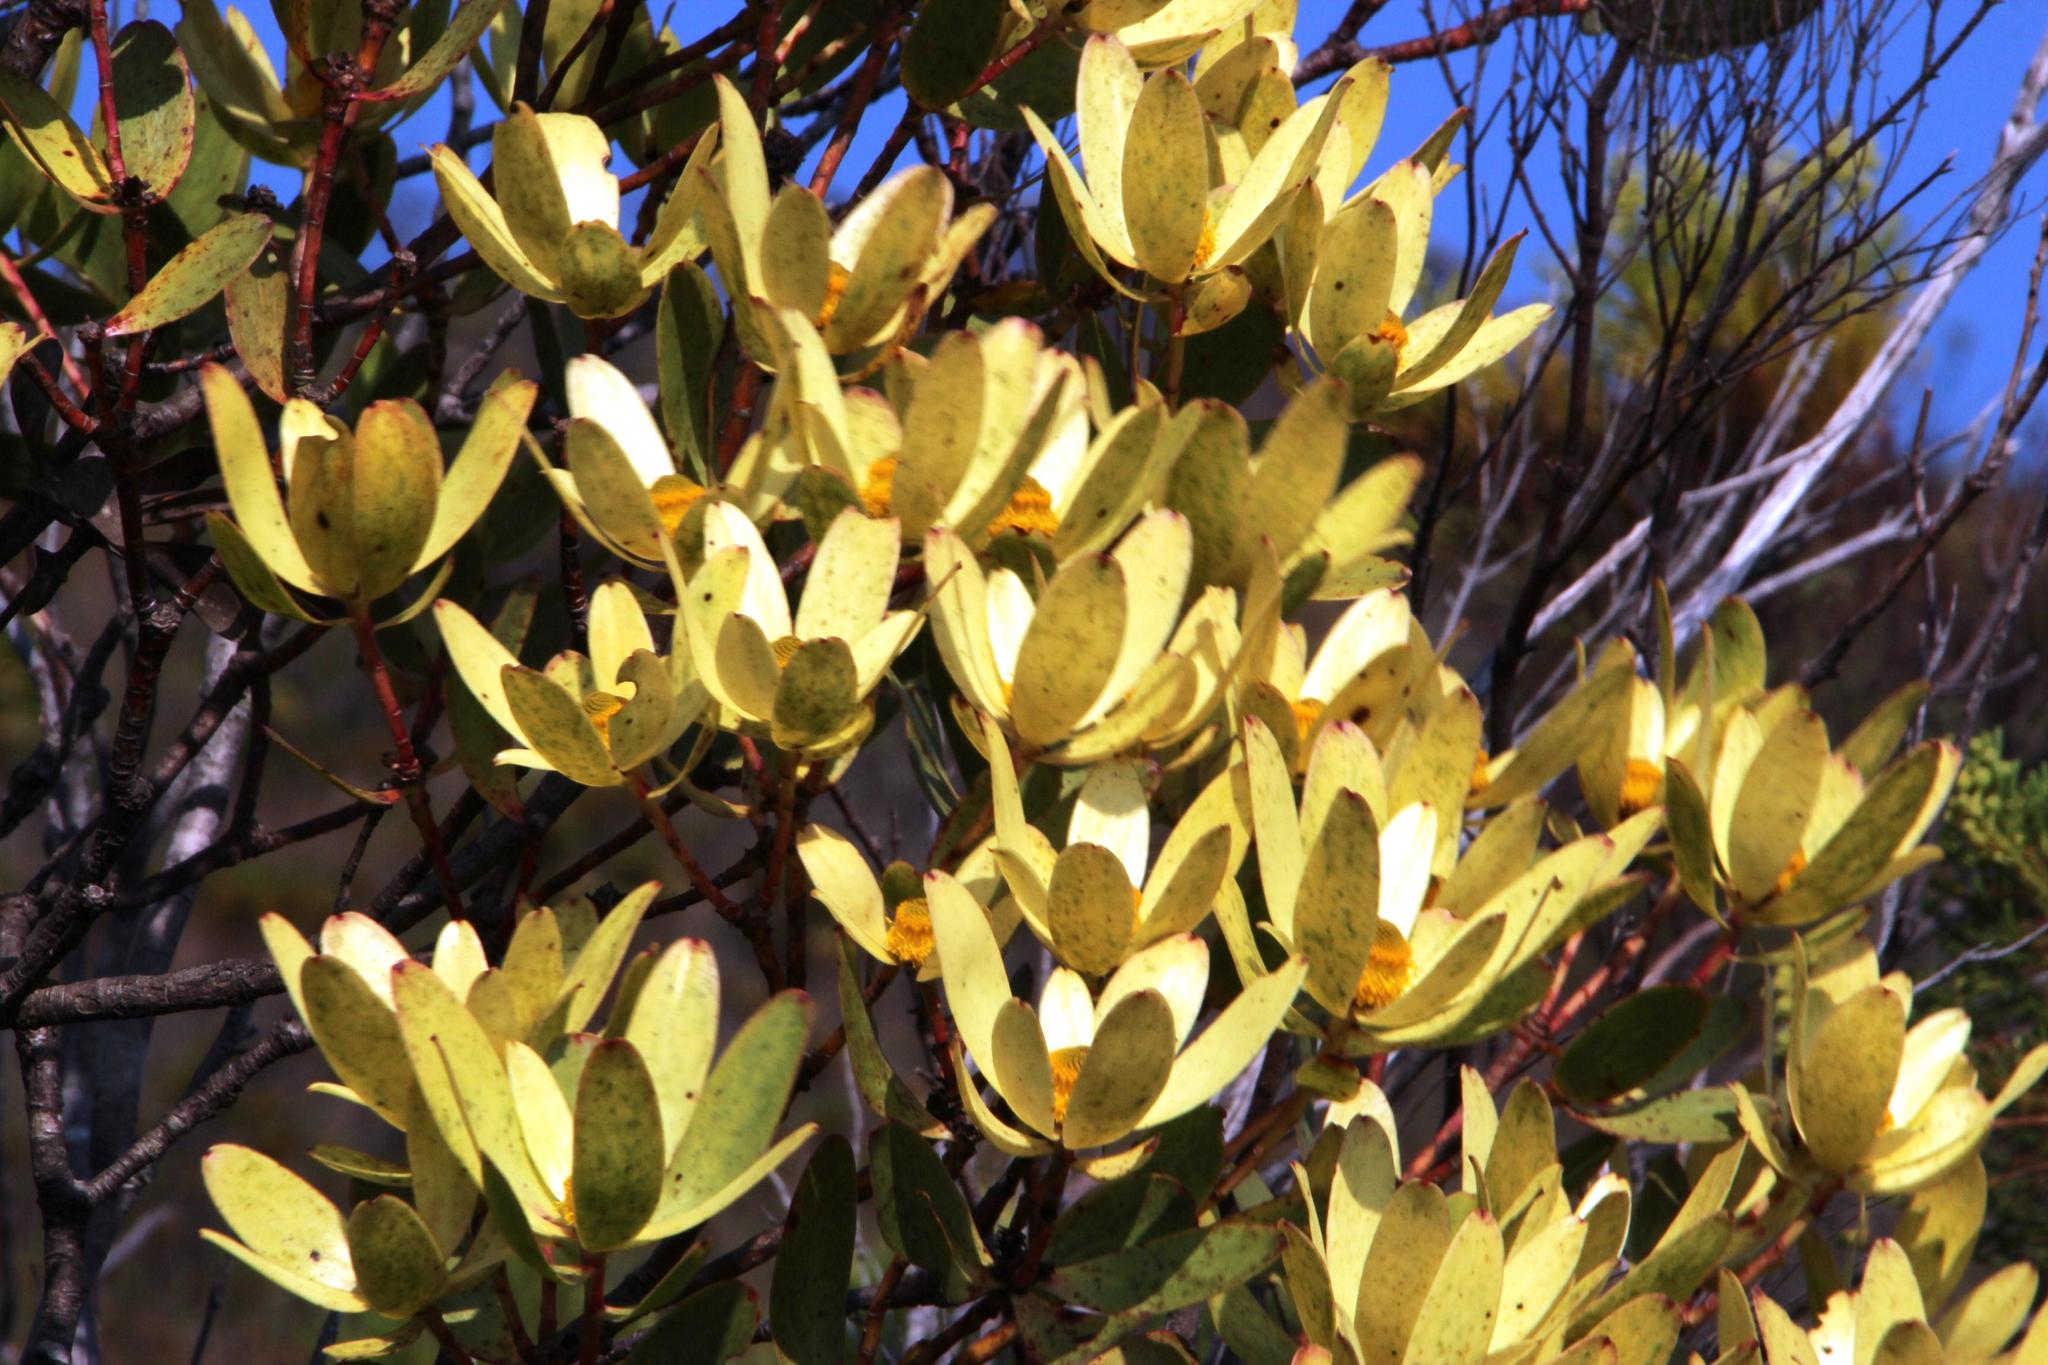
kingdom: Plantae
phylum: Tracheophyta
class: Magnoliopsida
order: Proteales
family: Proteaceae
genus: Leucadendron
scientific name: Leucadendron gandogeri
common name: Broad-leaf conebush
